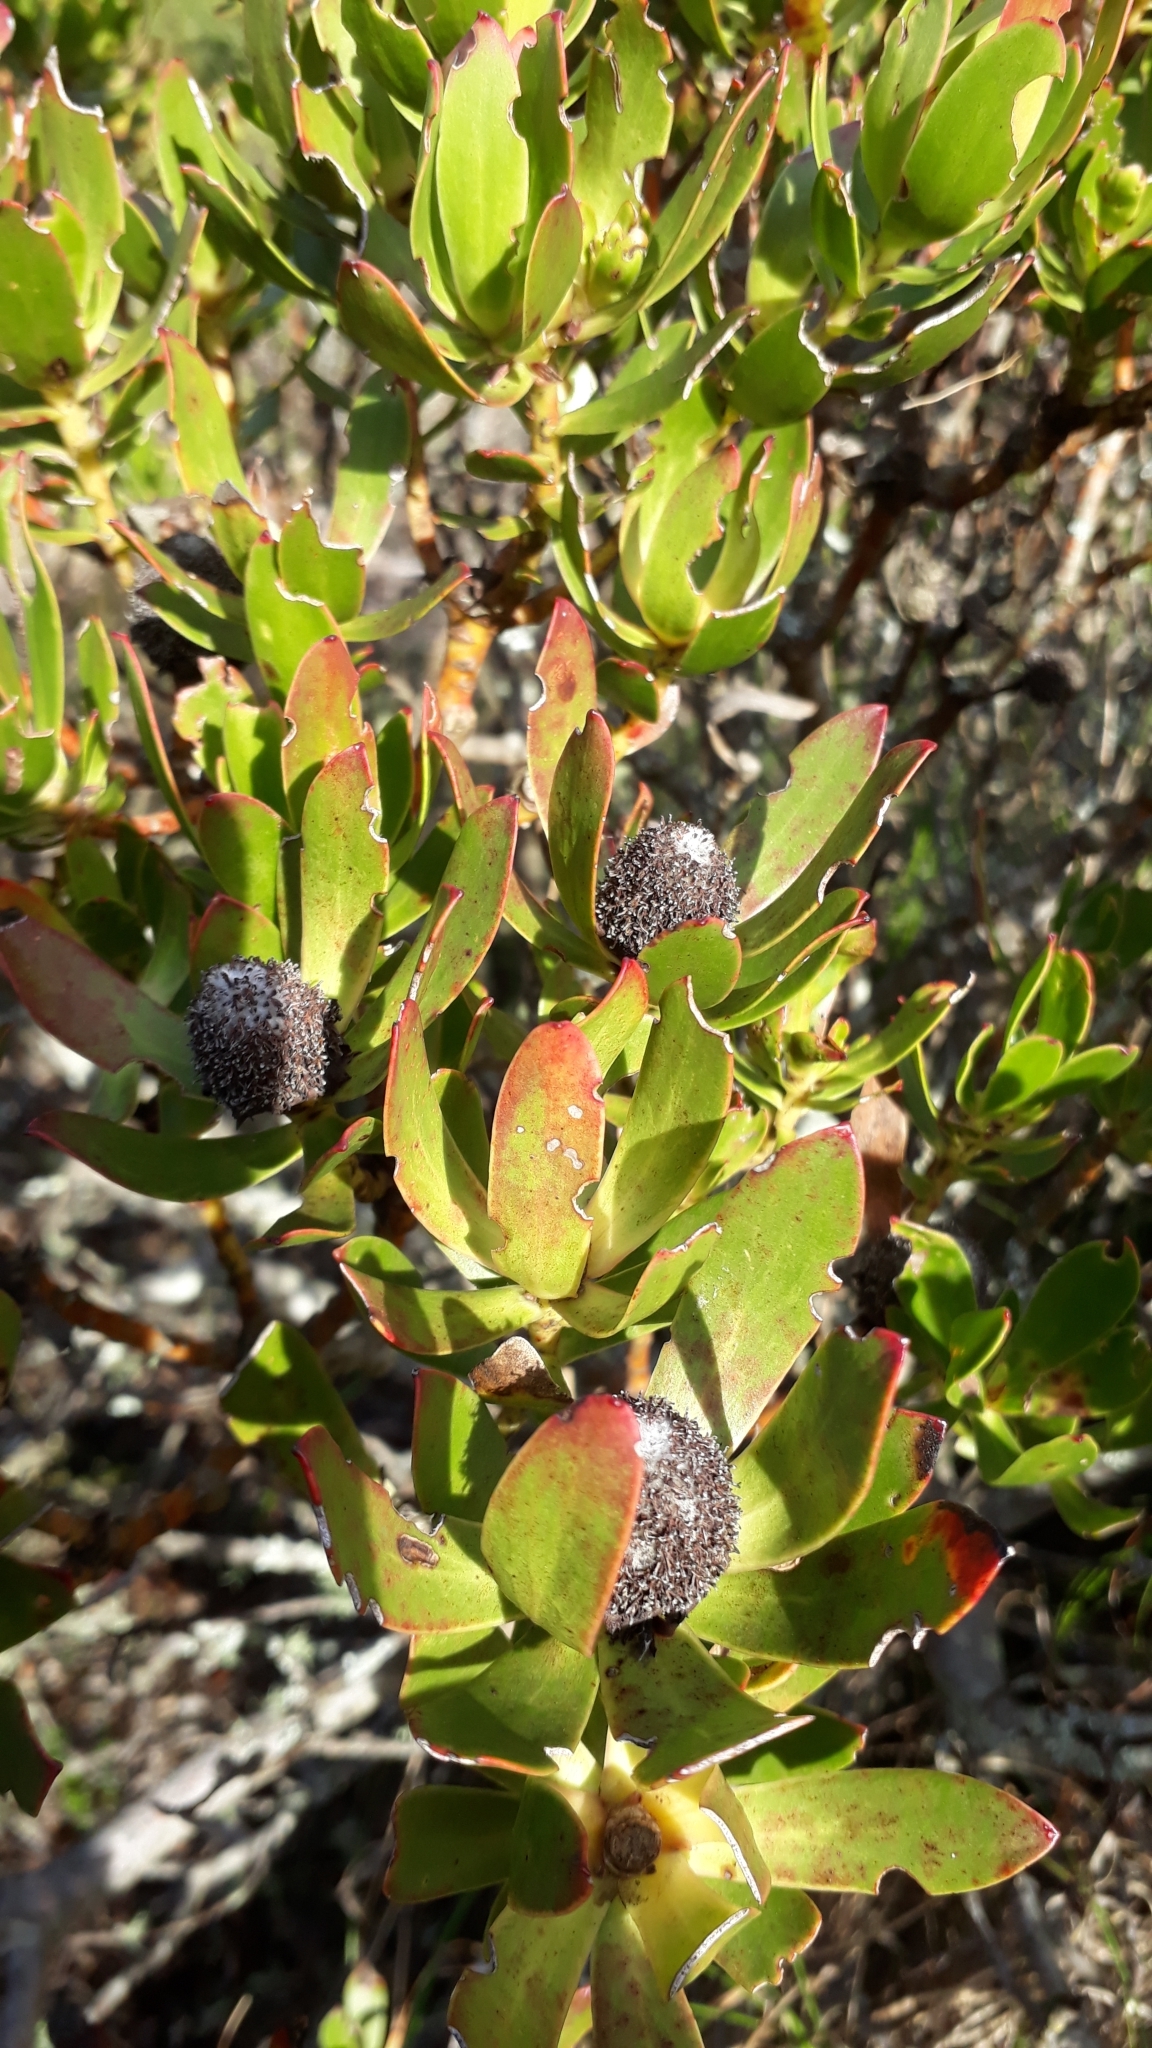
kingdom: Plantae
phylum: Tracheophyta
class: Magnoliopsida
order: Proteales
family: Proteaceae
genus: Leucadendron
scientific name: Leucadendron strobilinum
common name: Mountain rose
